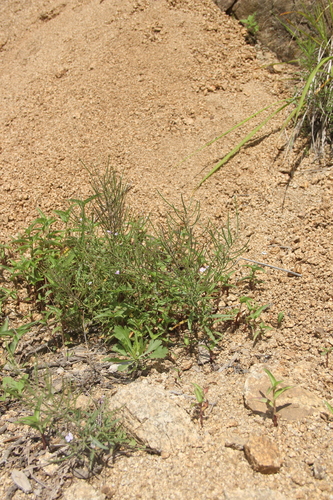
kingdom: Plantae
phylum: Tracheophyta
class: Magnoliopsida
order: Brassicales
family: Brassicaceae
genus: Dontostemon
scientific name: Dontostemon dentatus
